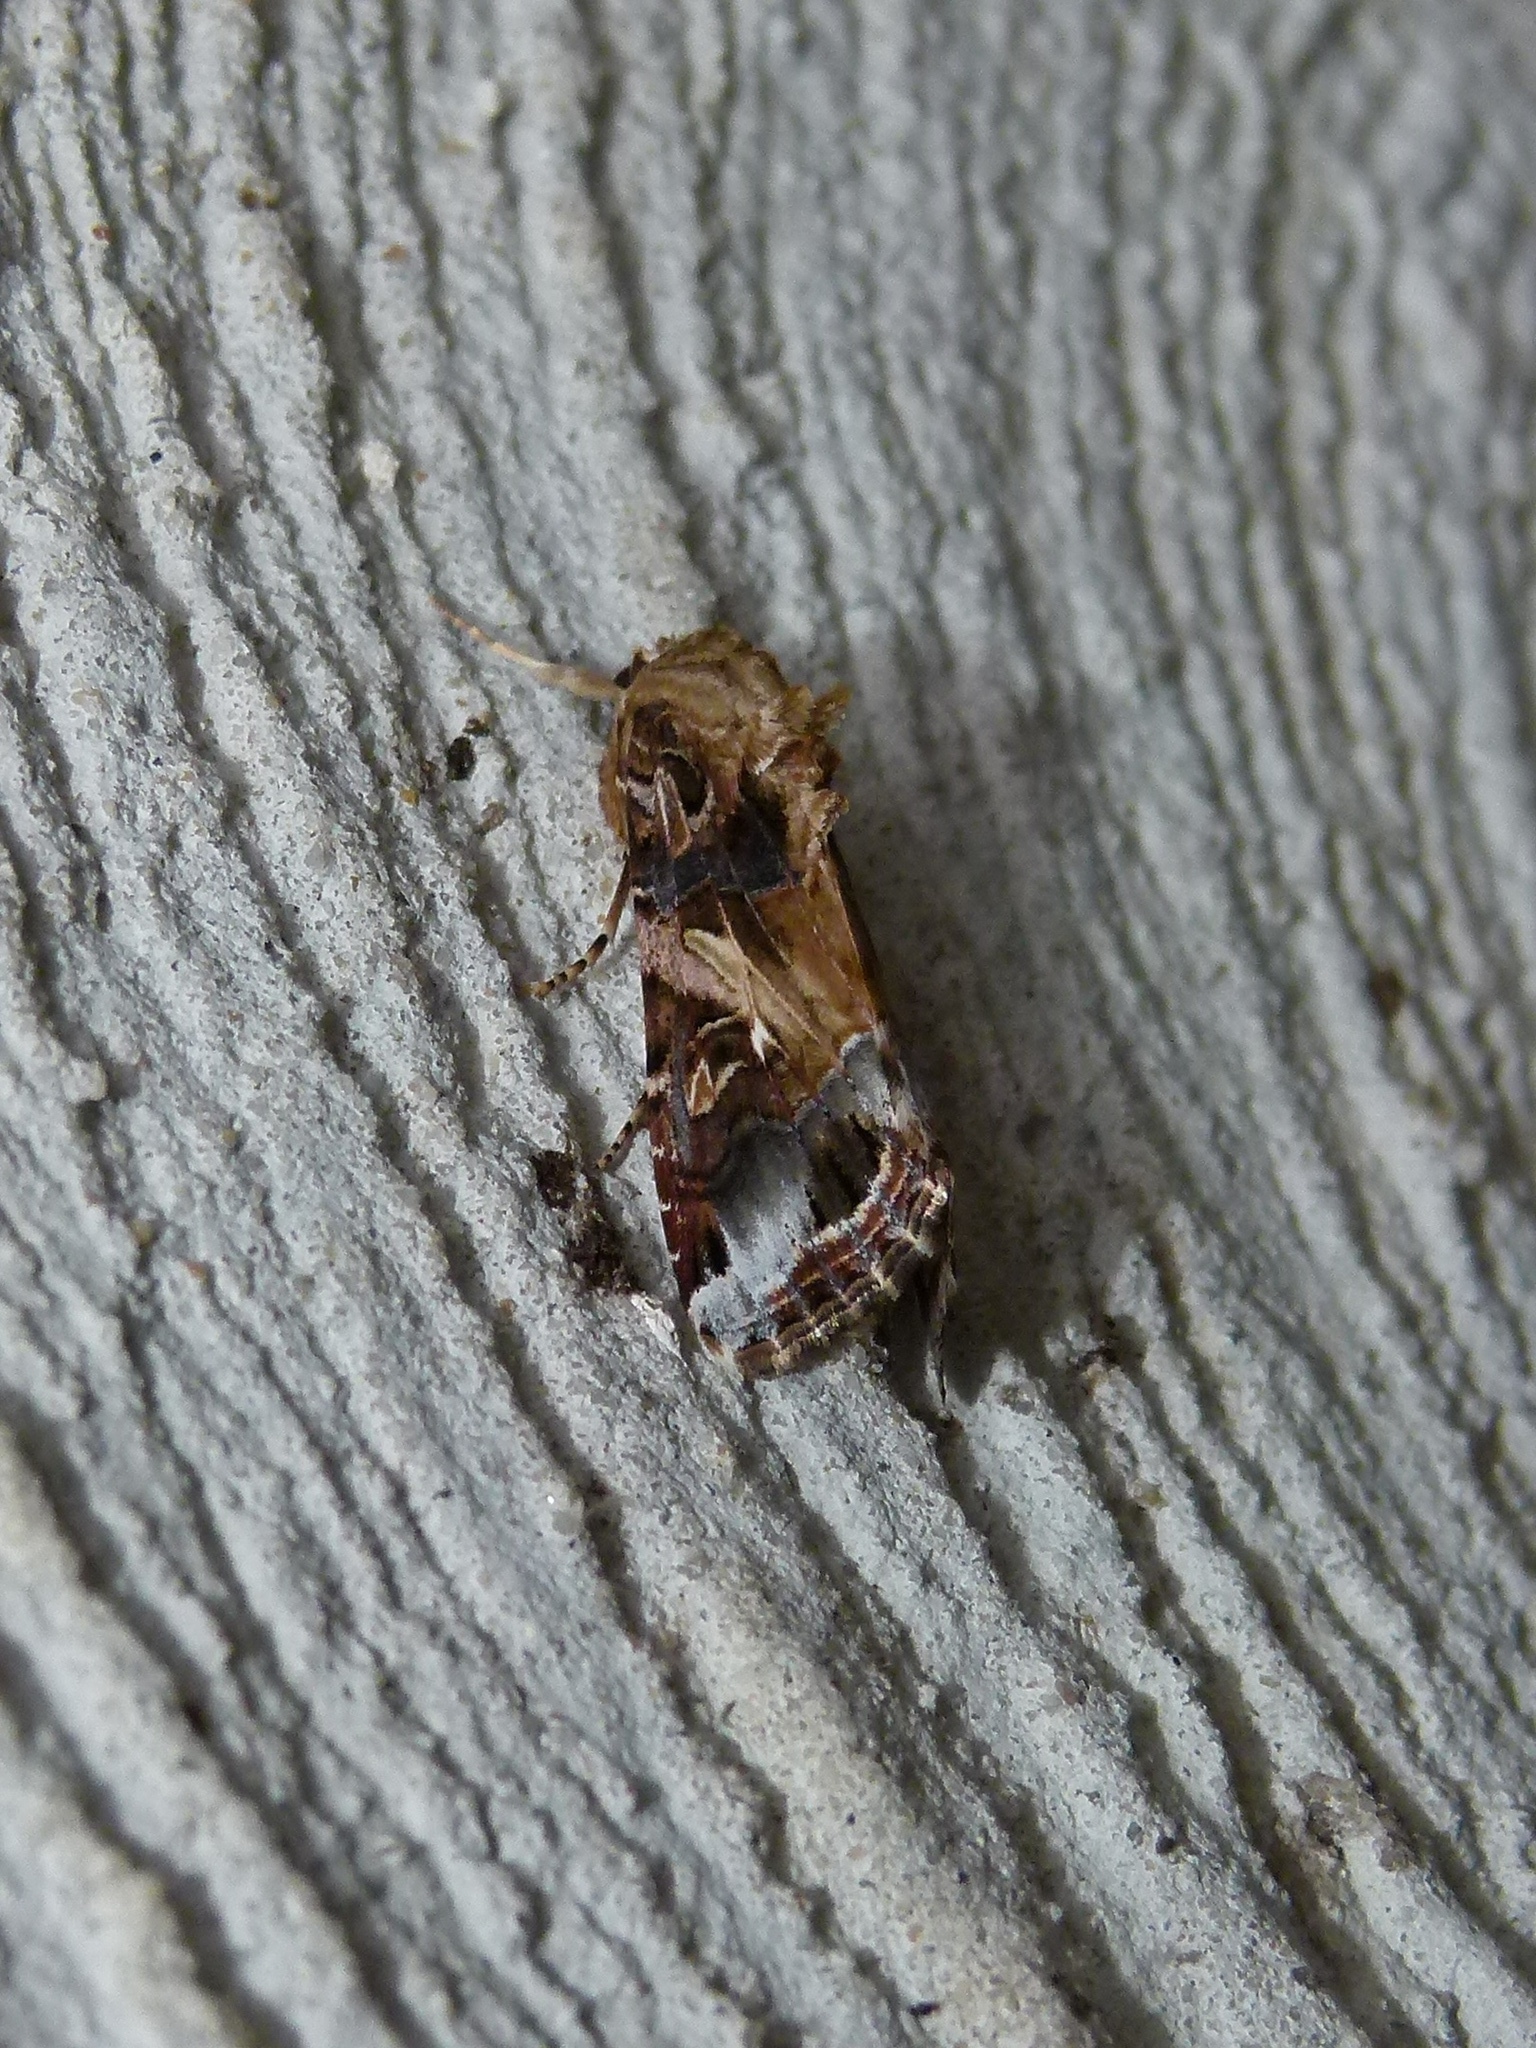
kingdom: Animalia
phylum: Arthropoda
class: Insecta
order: Lepidoptera
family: Noctuidae
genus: Spodoptera
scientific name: Spodoptera ornithogalli
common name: Yellow-striped armyworm
